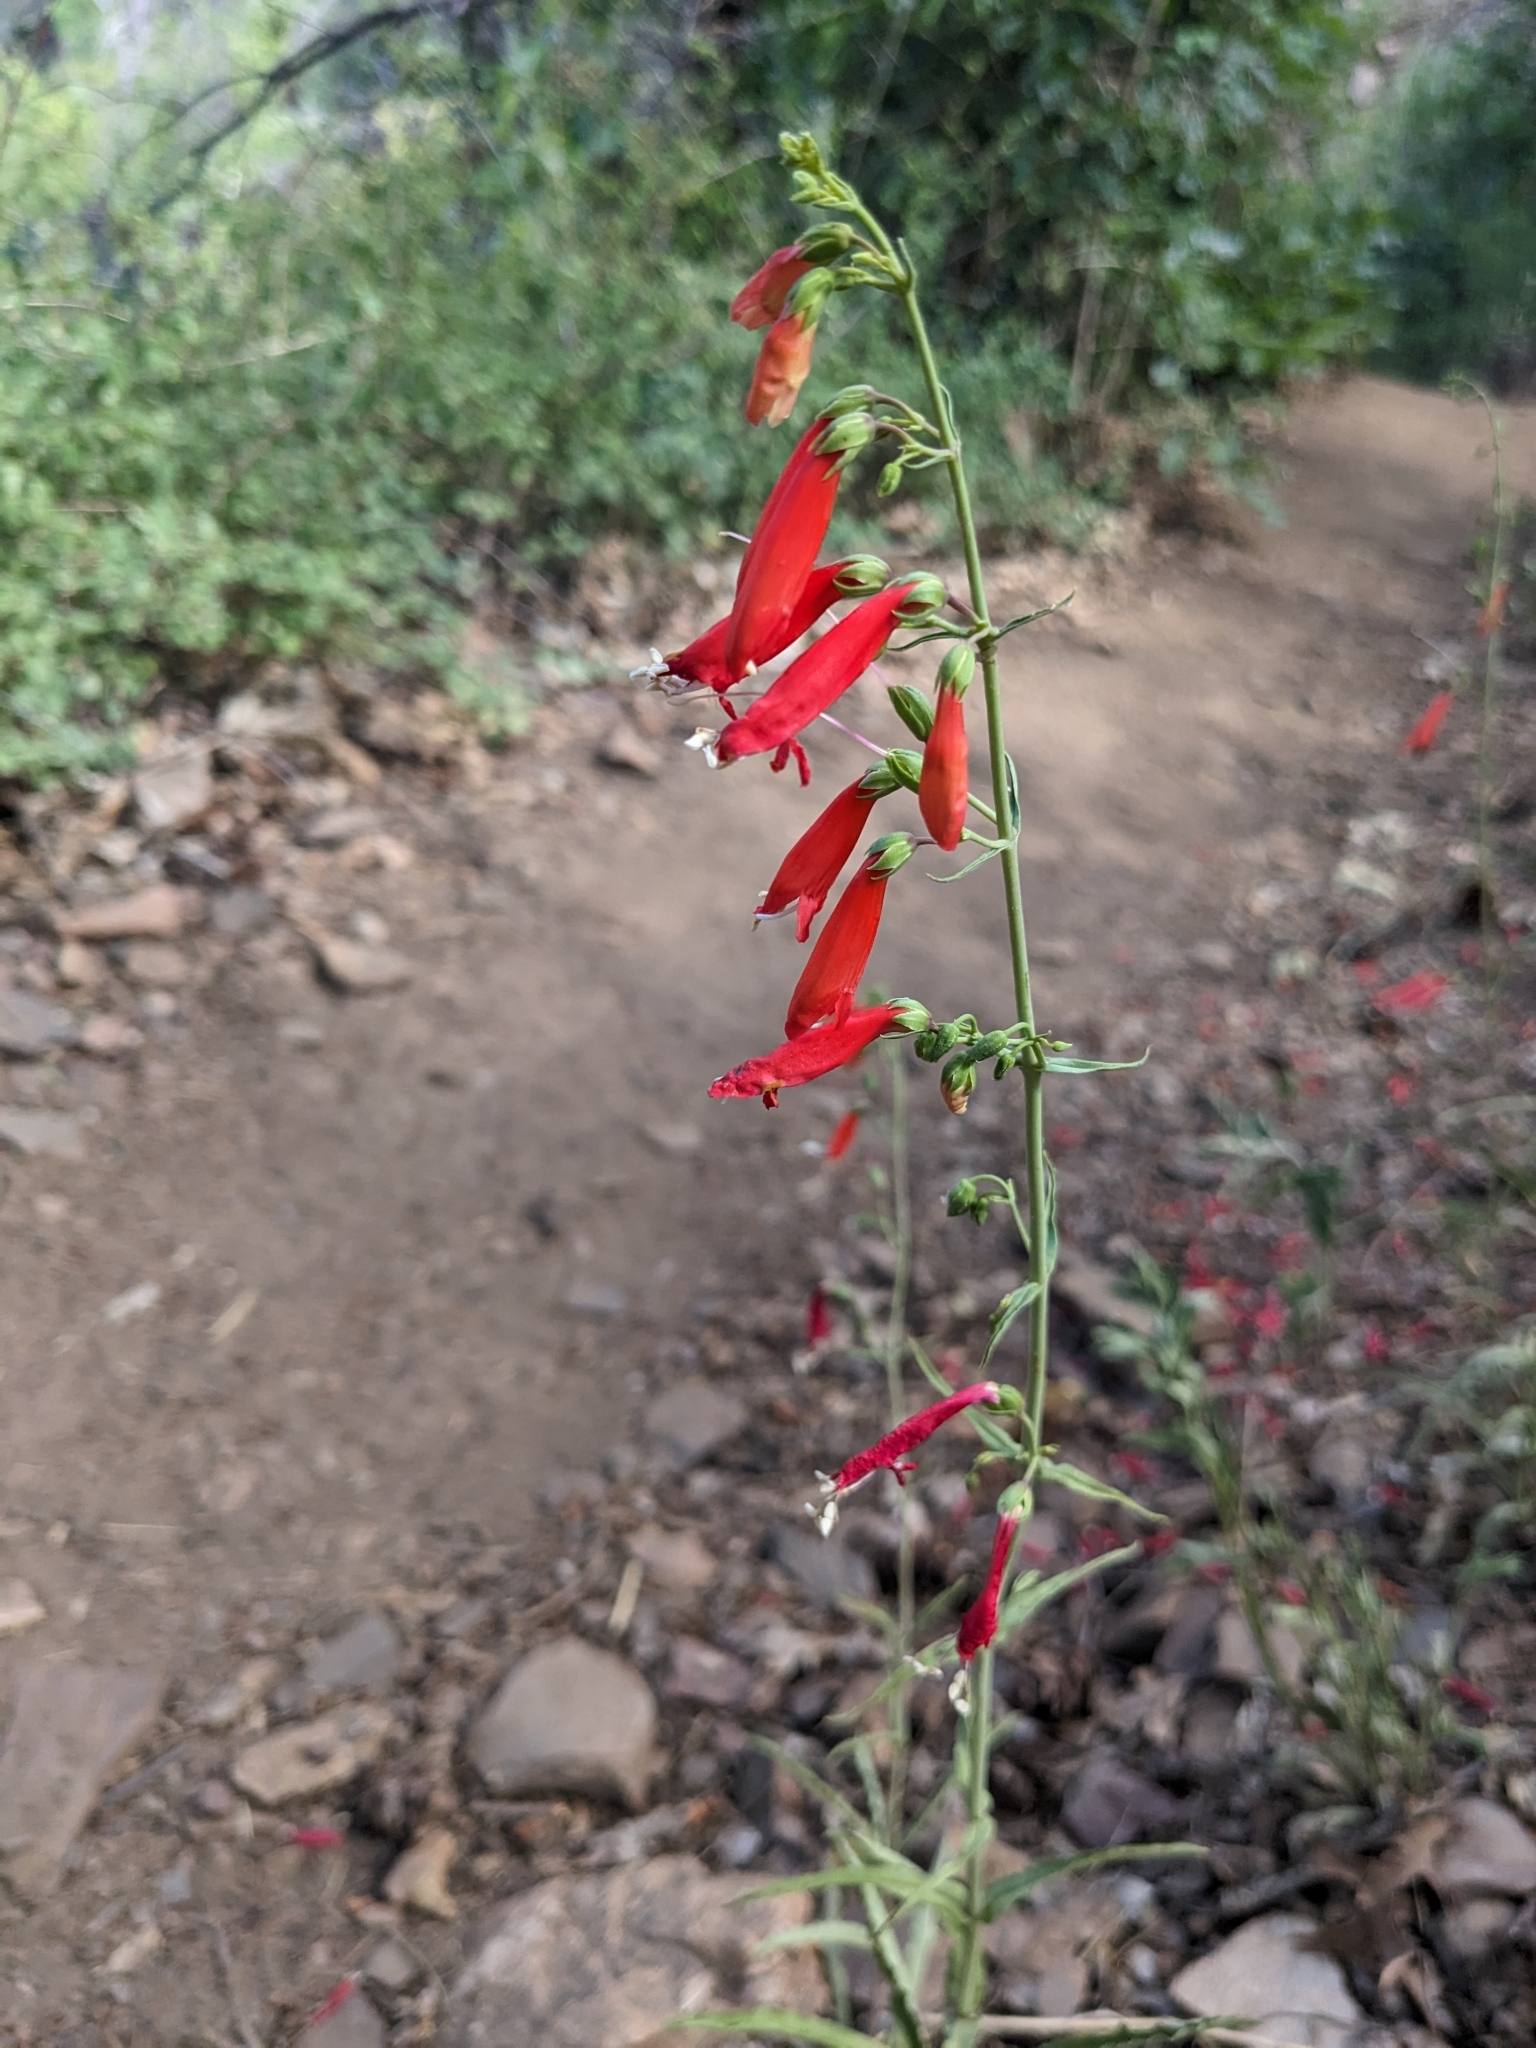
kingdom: Plantae
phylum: Tracheophyta
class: Magnoliopsida
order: Lamiales
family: Plantaginaceae
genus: Penstemon
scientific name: Penstemon barbatus
